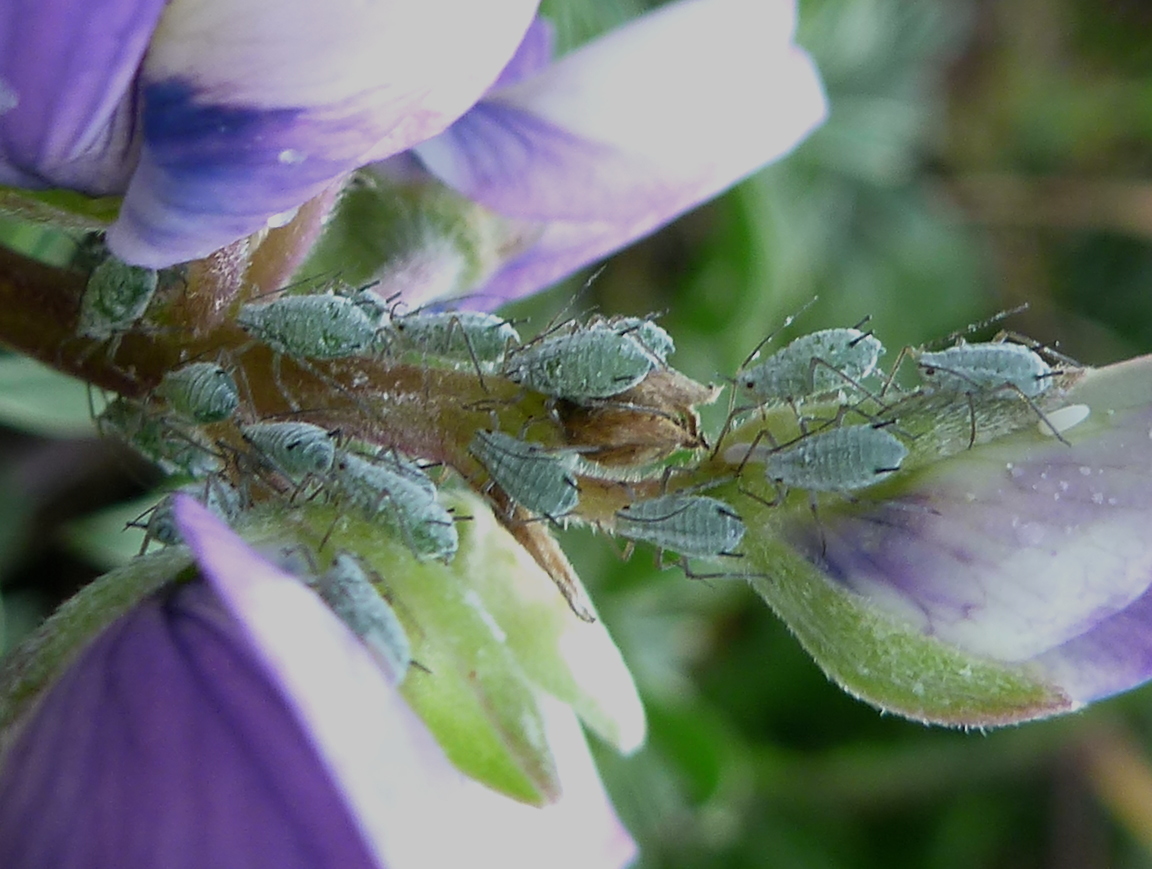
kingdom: Animalia
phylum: Arthropoda
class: Insecta
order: Hemiptera
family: Aphididae
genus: Macrosiphum
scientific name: Macrosiphum albifrons
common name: Lupine aphid
